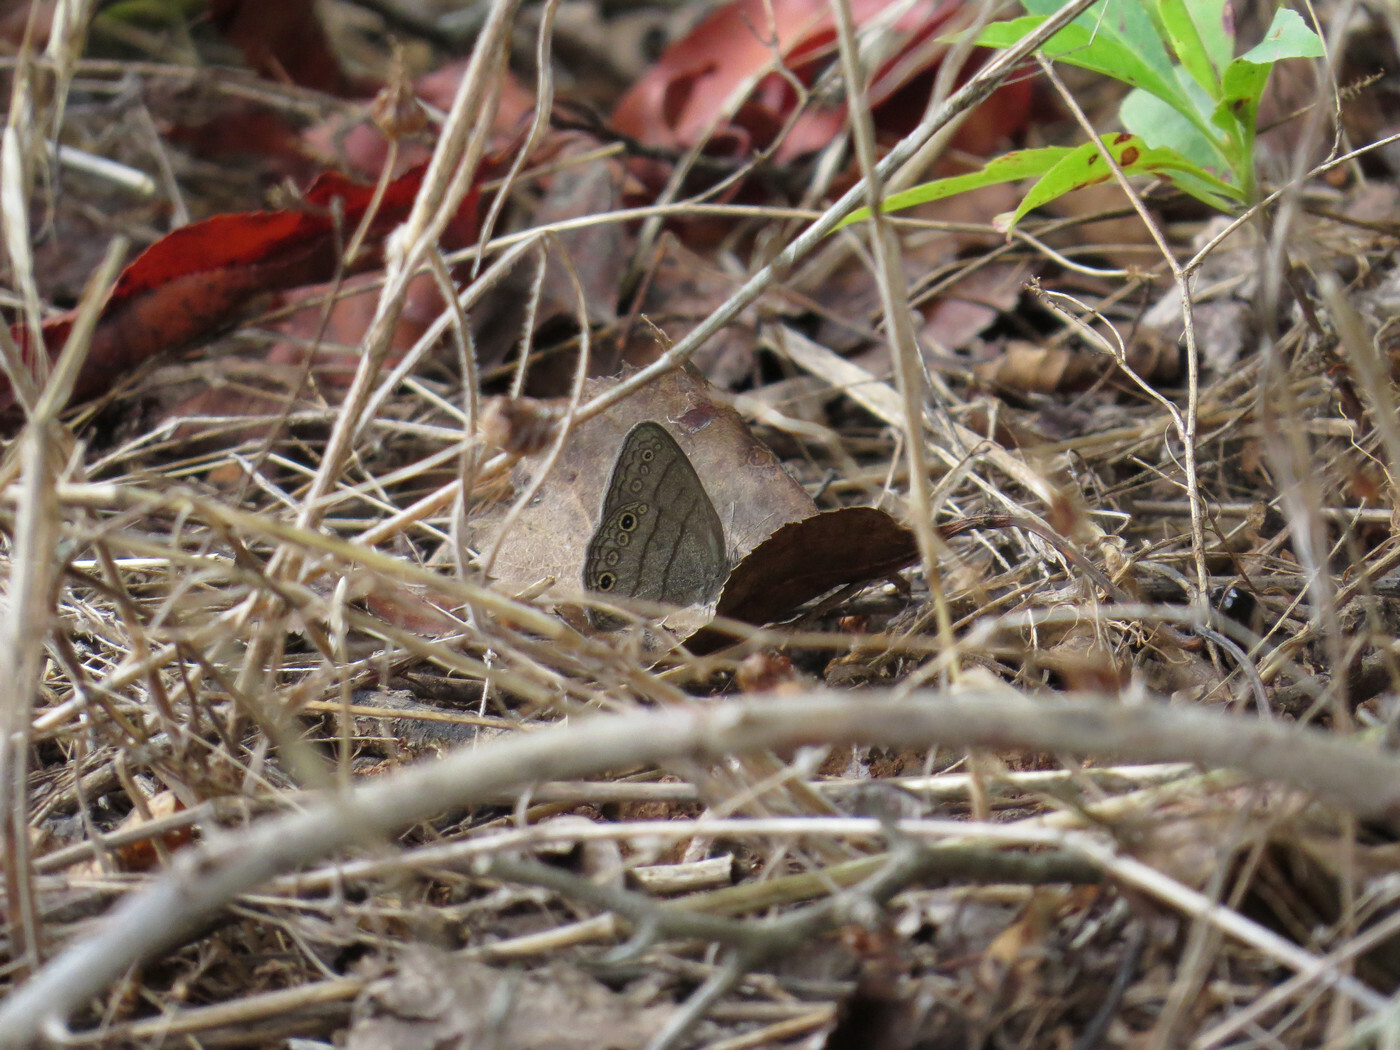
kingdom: Animalia
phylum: Arthropoda
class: Insecta
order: Lepidoptera
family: Nymphalidae
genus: Hermeuptychia
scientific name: Hermeuptychia hermes
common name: Hermes satyr
